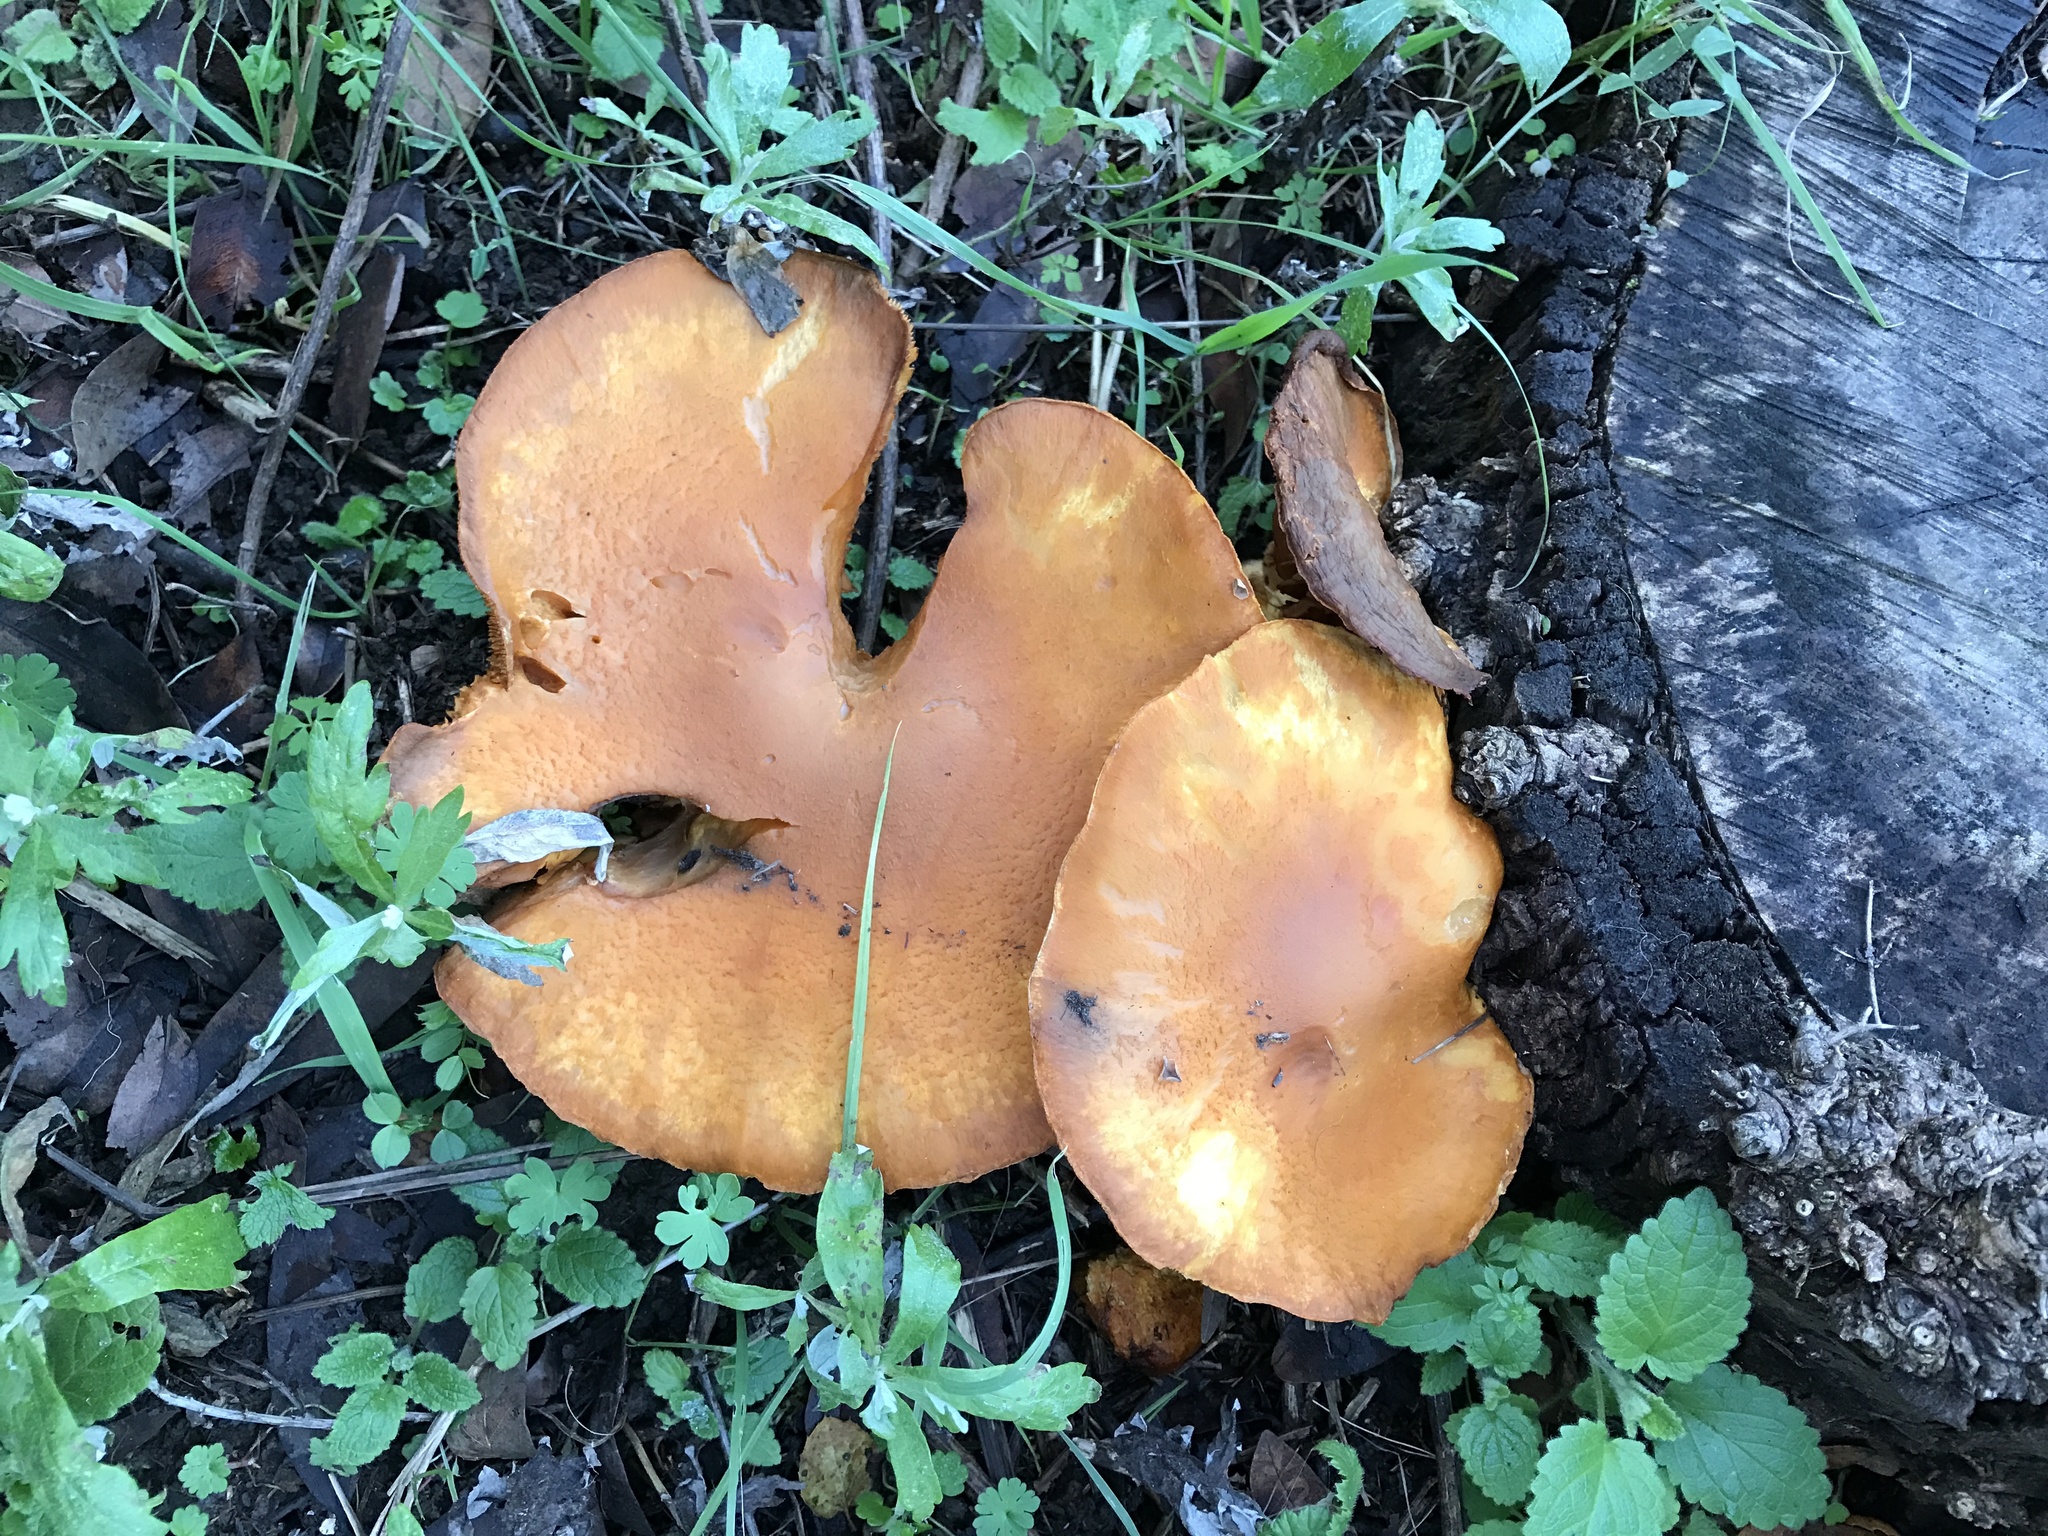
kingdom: Fungi
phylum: Basidiomycota
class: Agaricomycetes
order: Agaricales
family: Hymenogastraceae
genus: Gymnopilus
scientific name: Gymnopilus ventricosus
